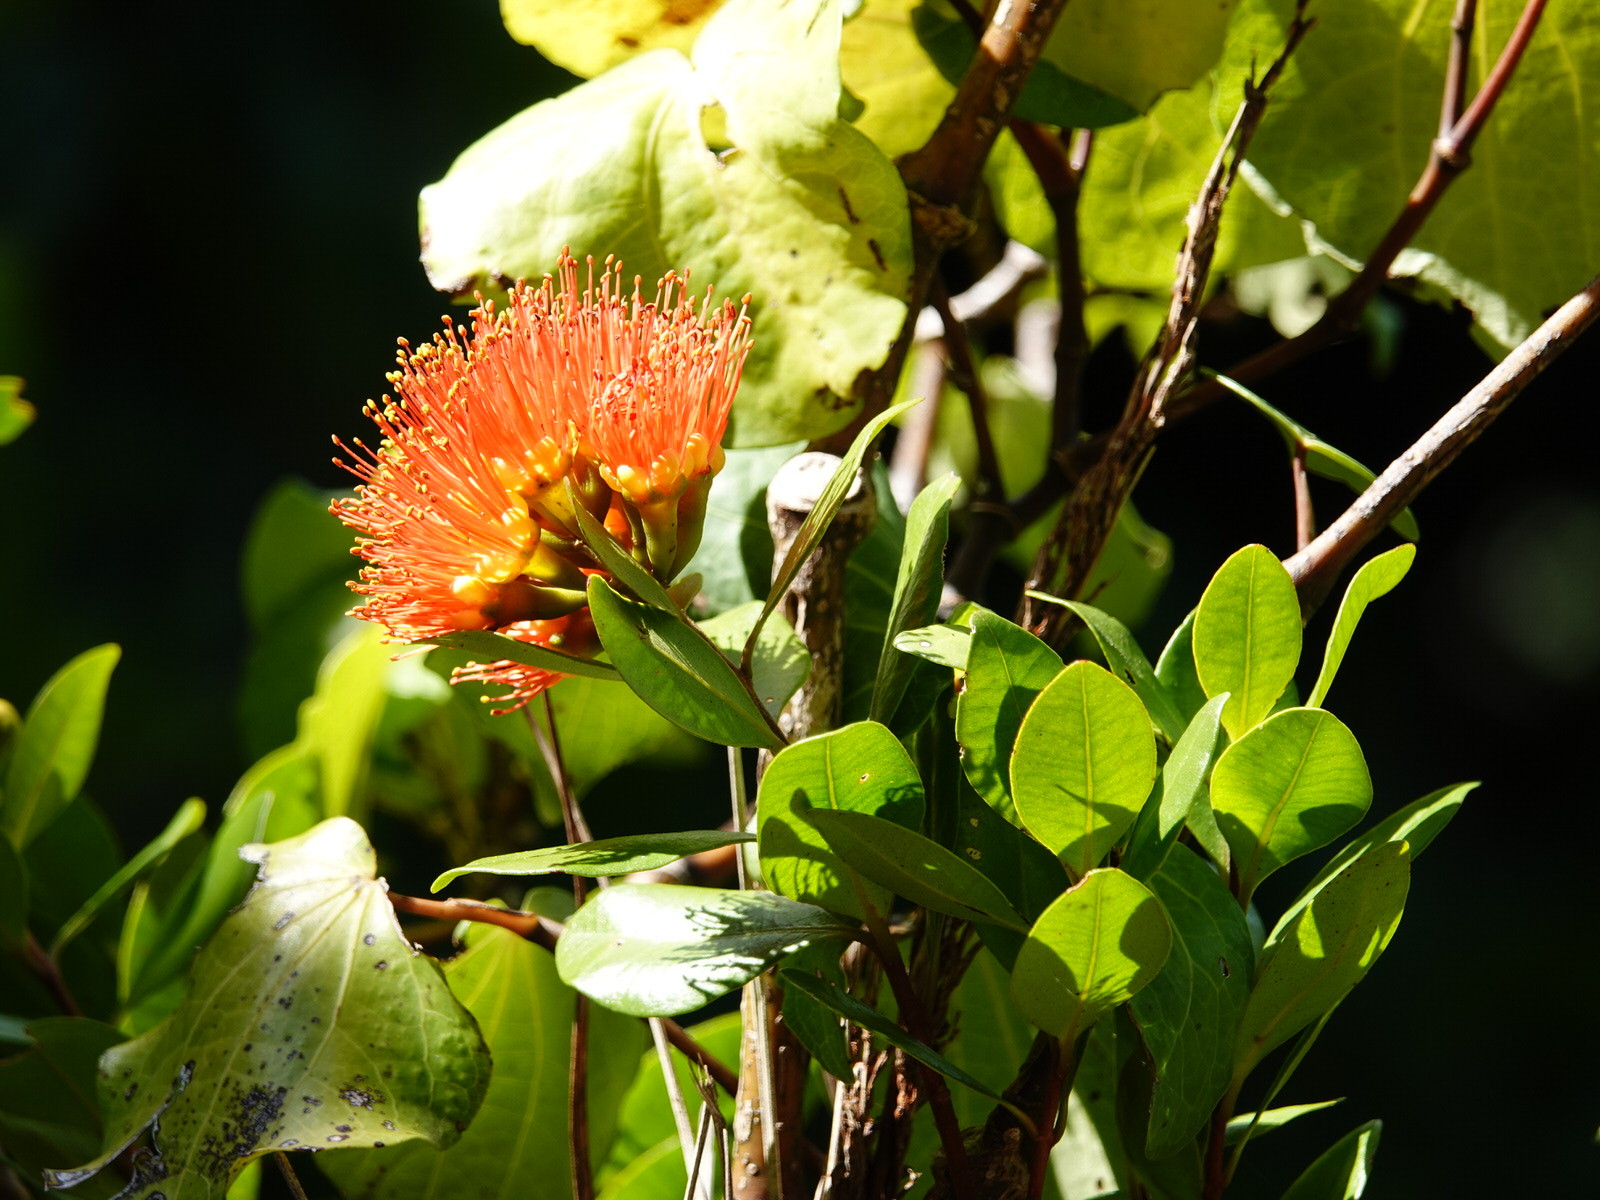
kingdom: Plantae
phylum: Tracheophyta
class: Magnoliopsida
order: Myrtales
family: Myrtaceae
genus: Metrosideros
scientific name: Metrosideros fulgens
